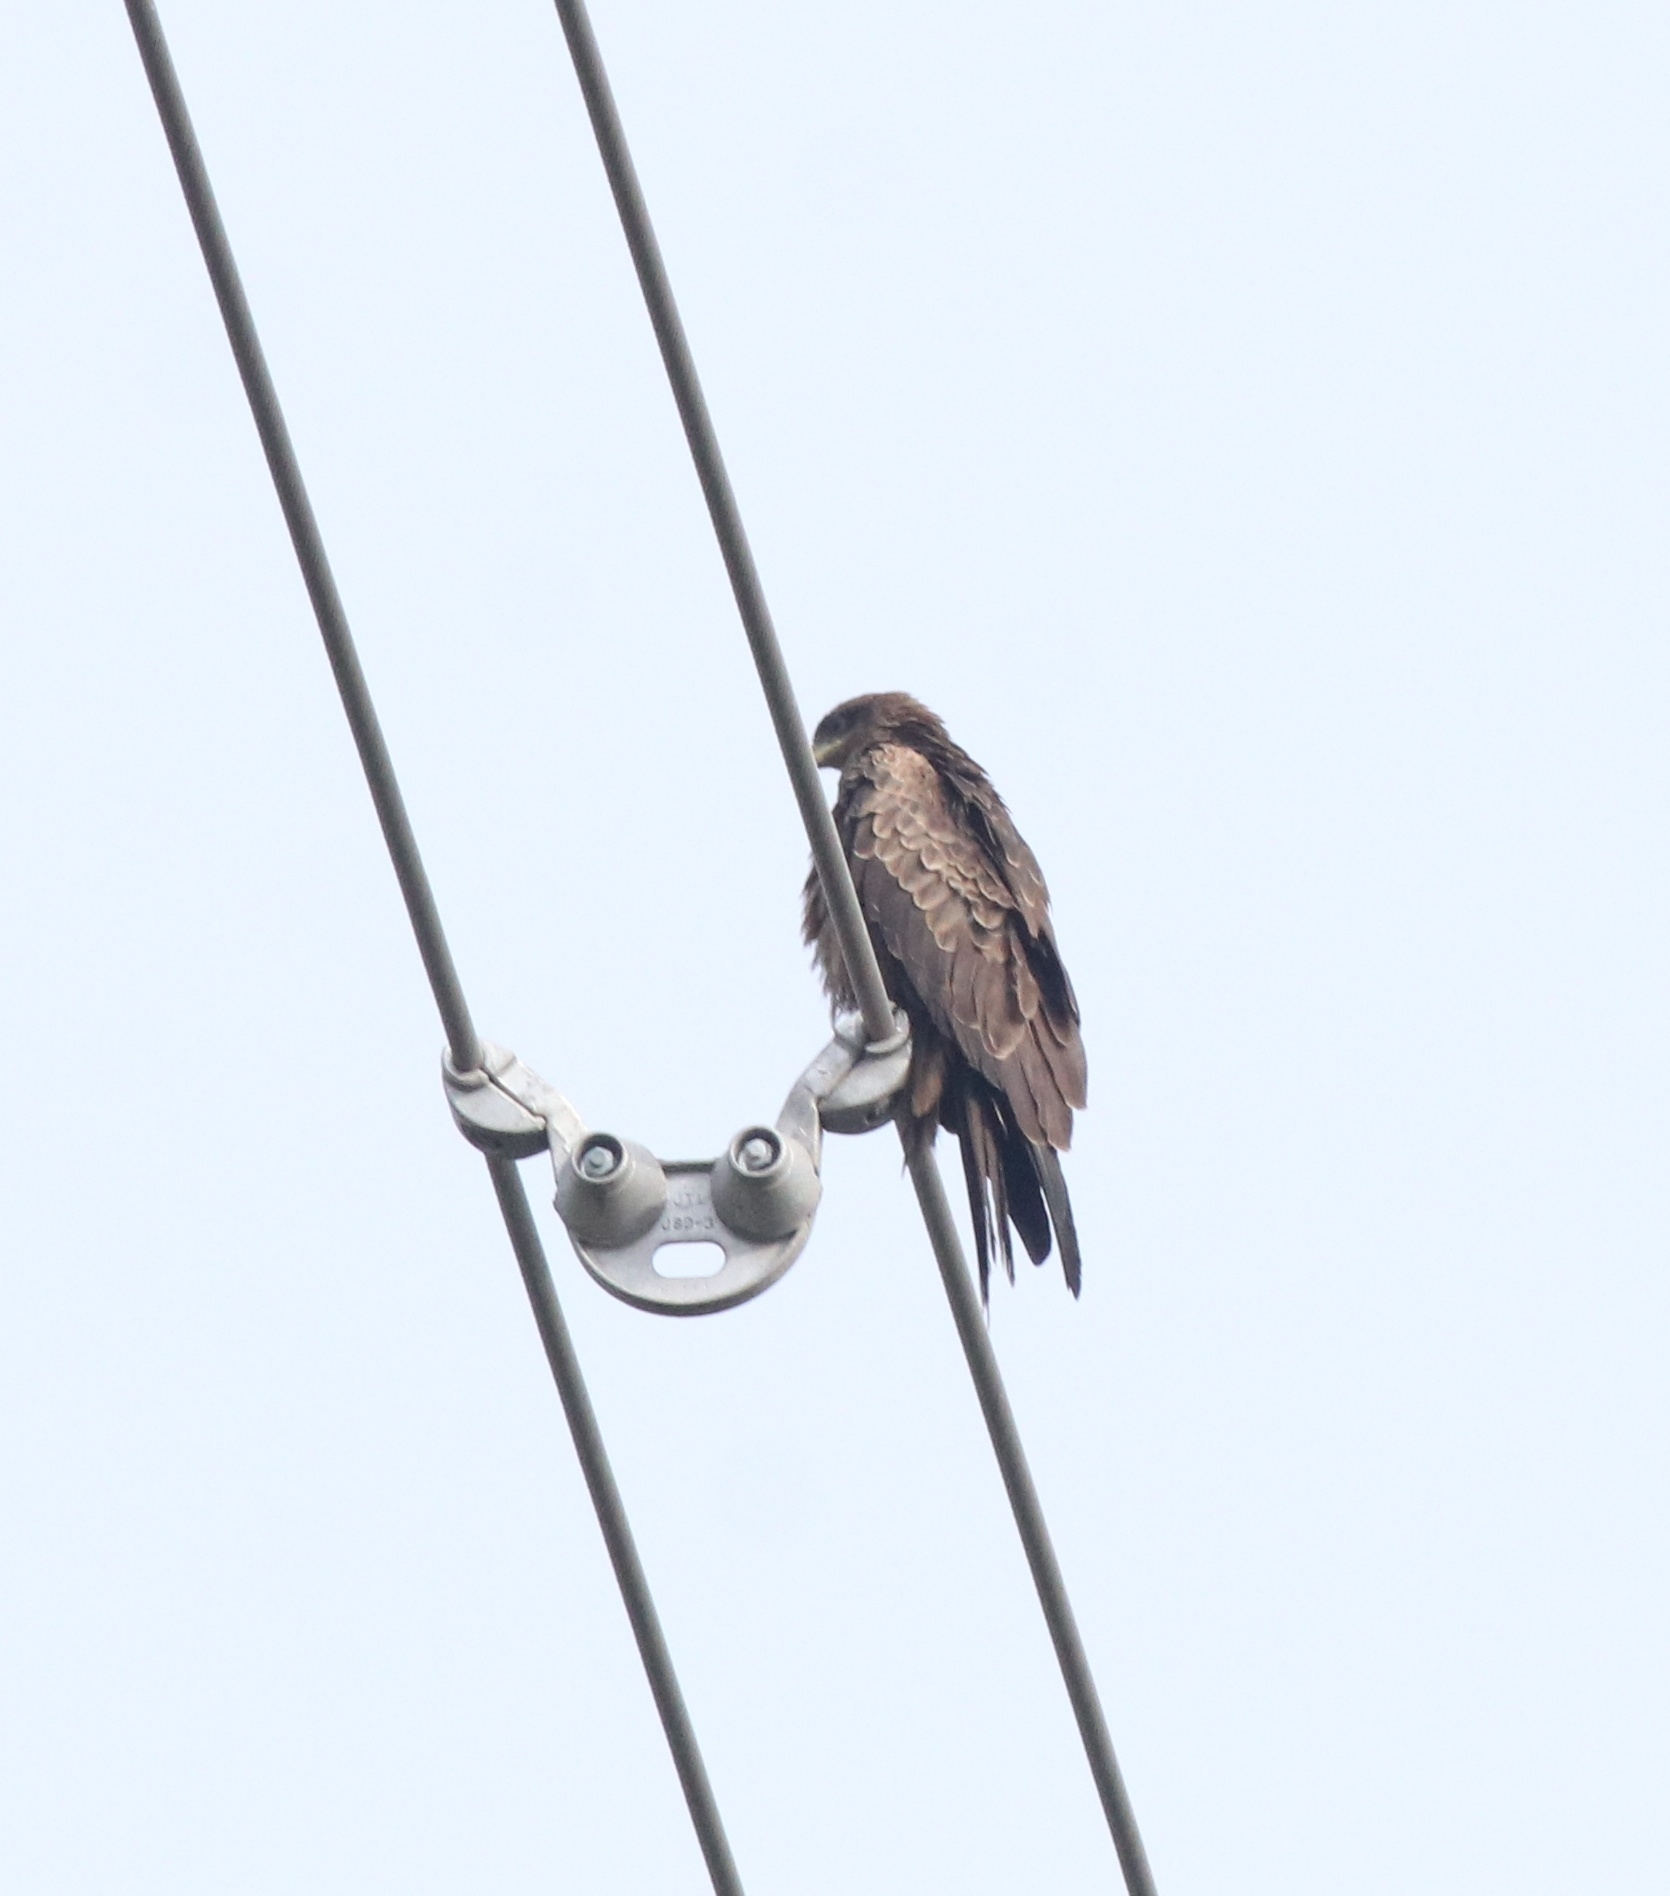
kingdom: Animalia
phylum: Chordata
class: Aves
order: Accipitriformes
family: Accipitridae
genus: Milvus
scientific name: Milvus migrans
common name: Black kite
